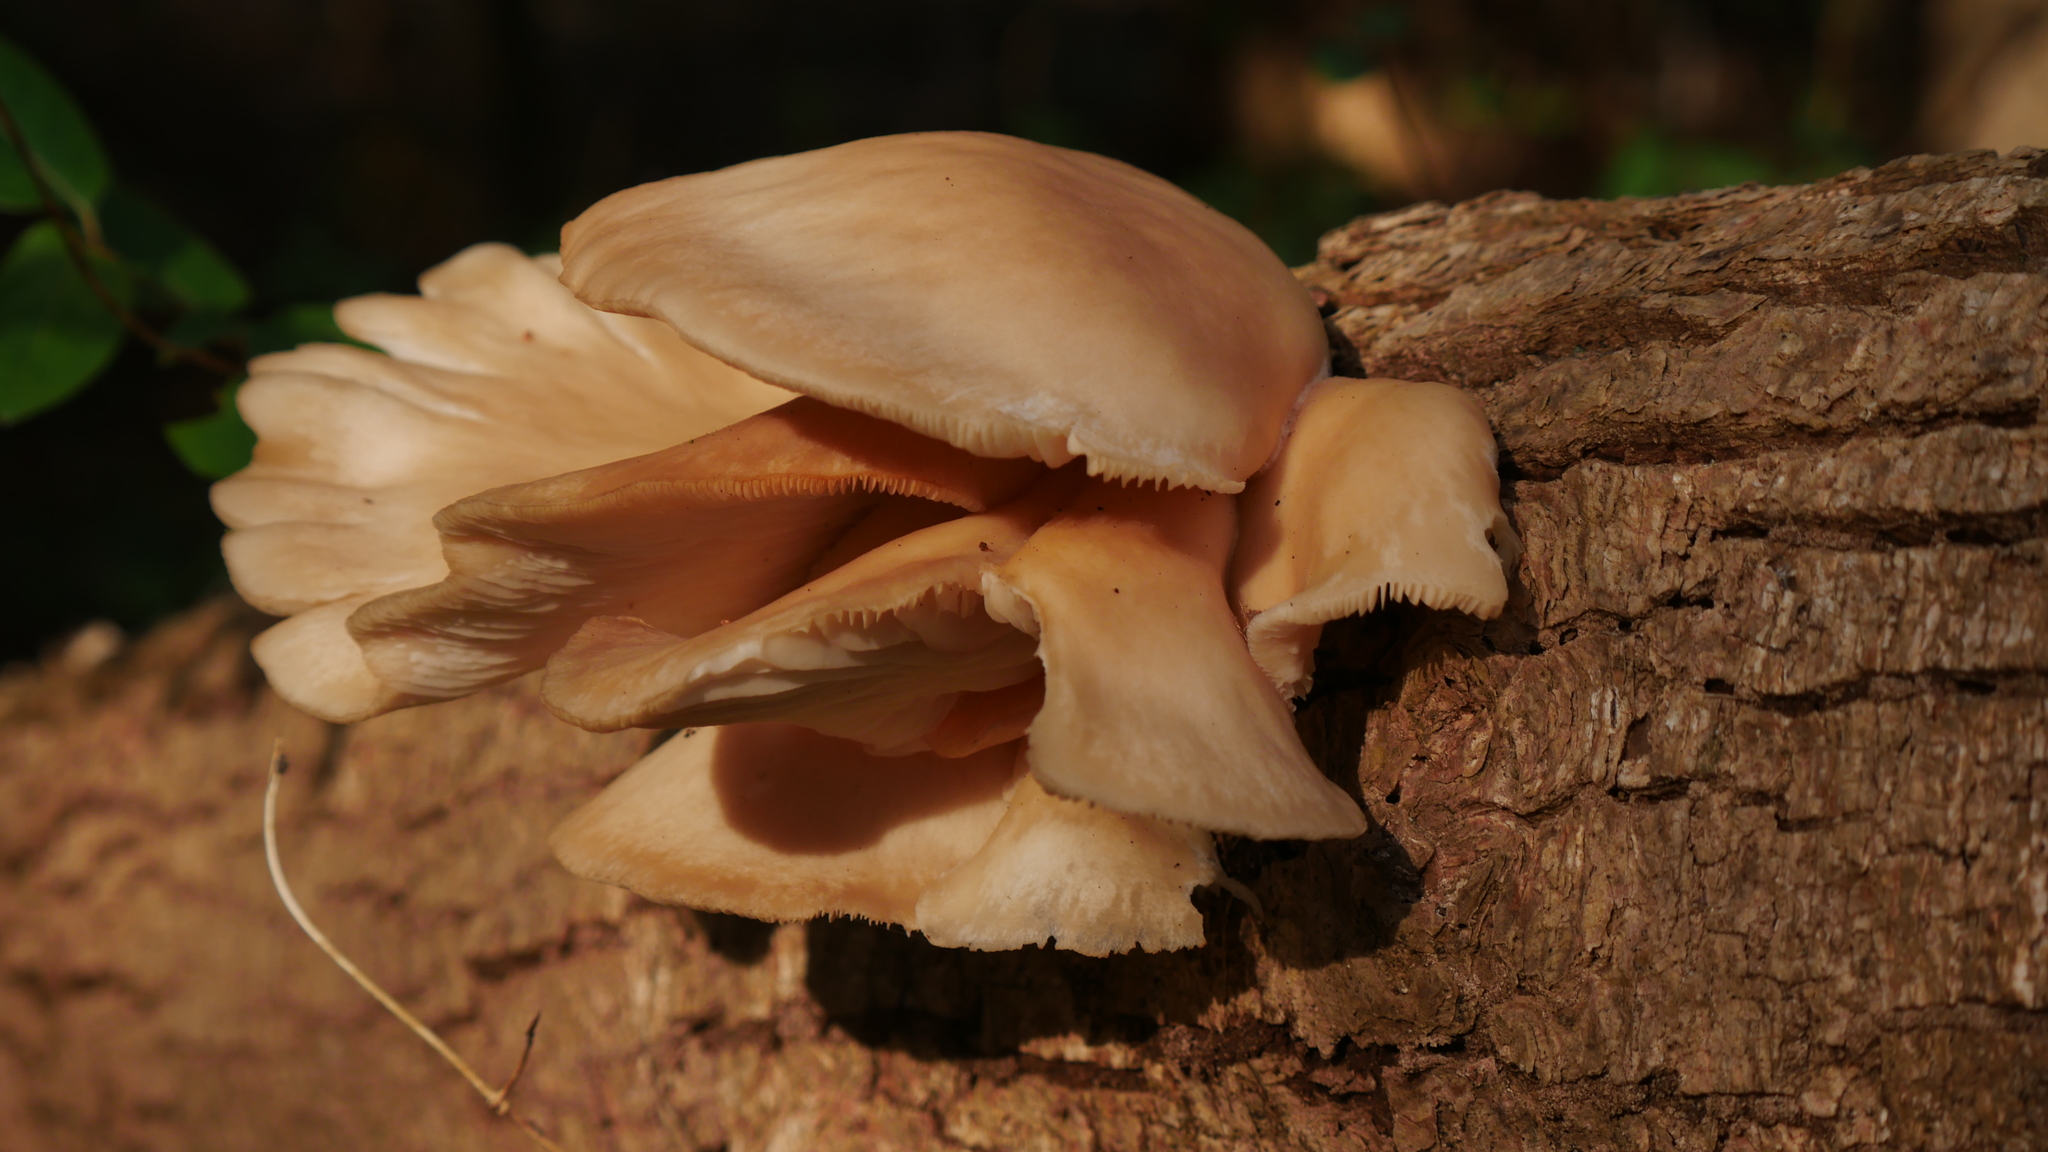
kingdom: Fungi
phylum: Basidiomycota
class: Agaricomycetes
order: Agaricales
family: Pleurotaceae
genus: Pleurotus
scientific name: Pleurotus ostreatus
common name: Oyster mushroom
